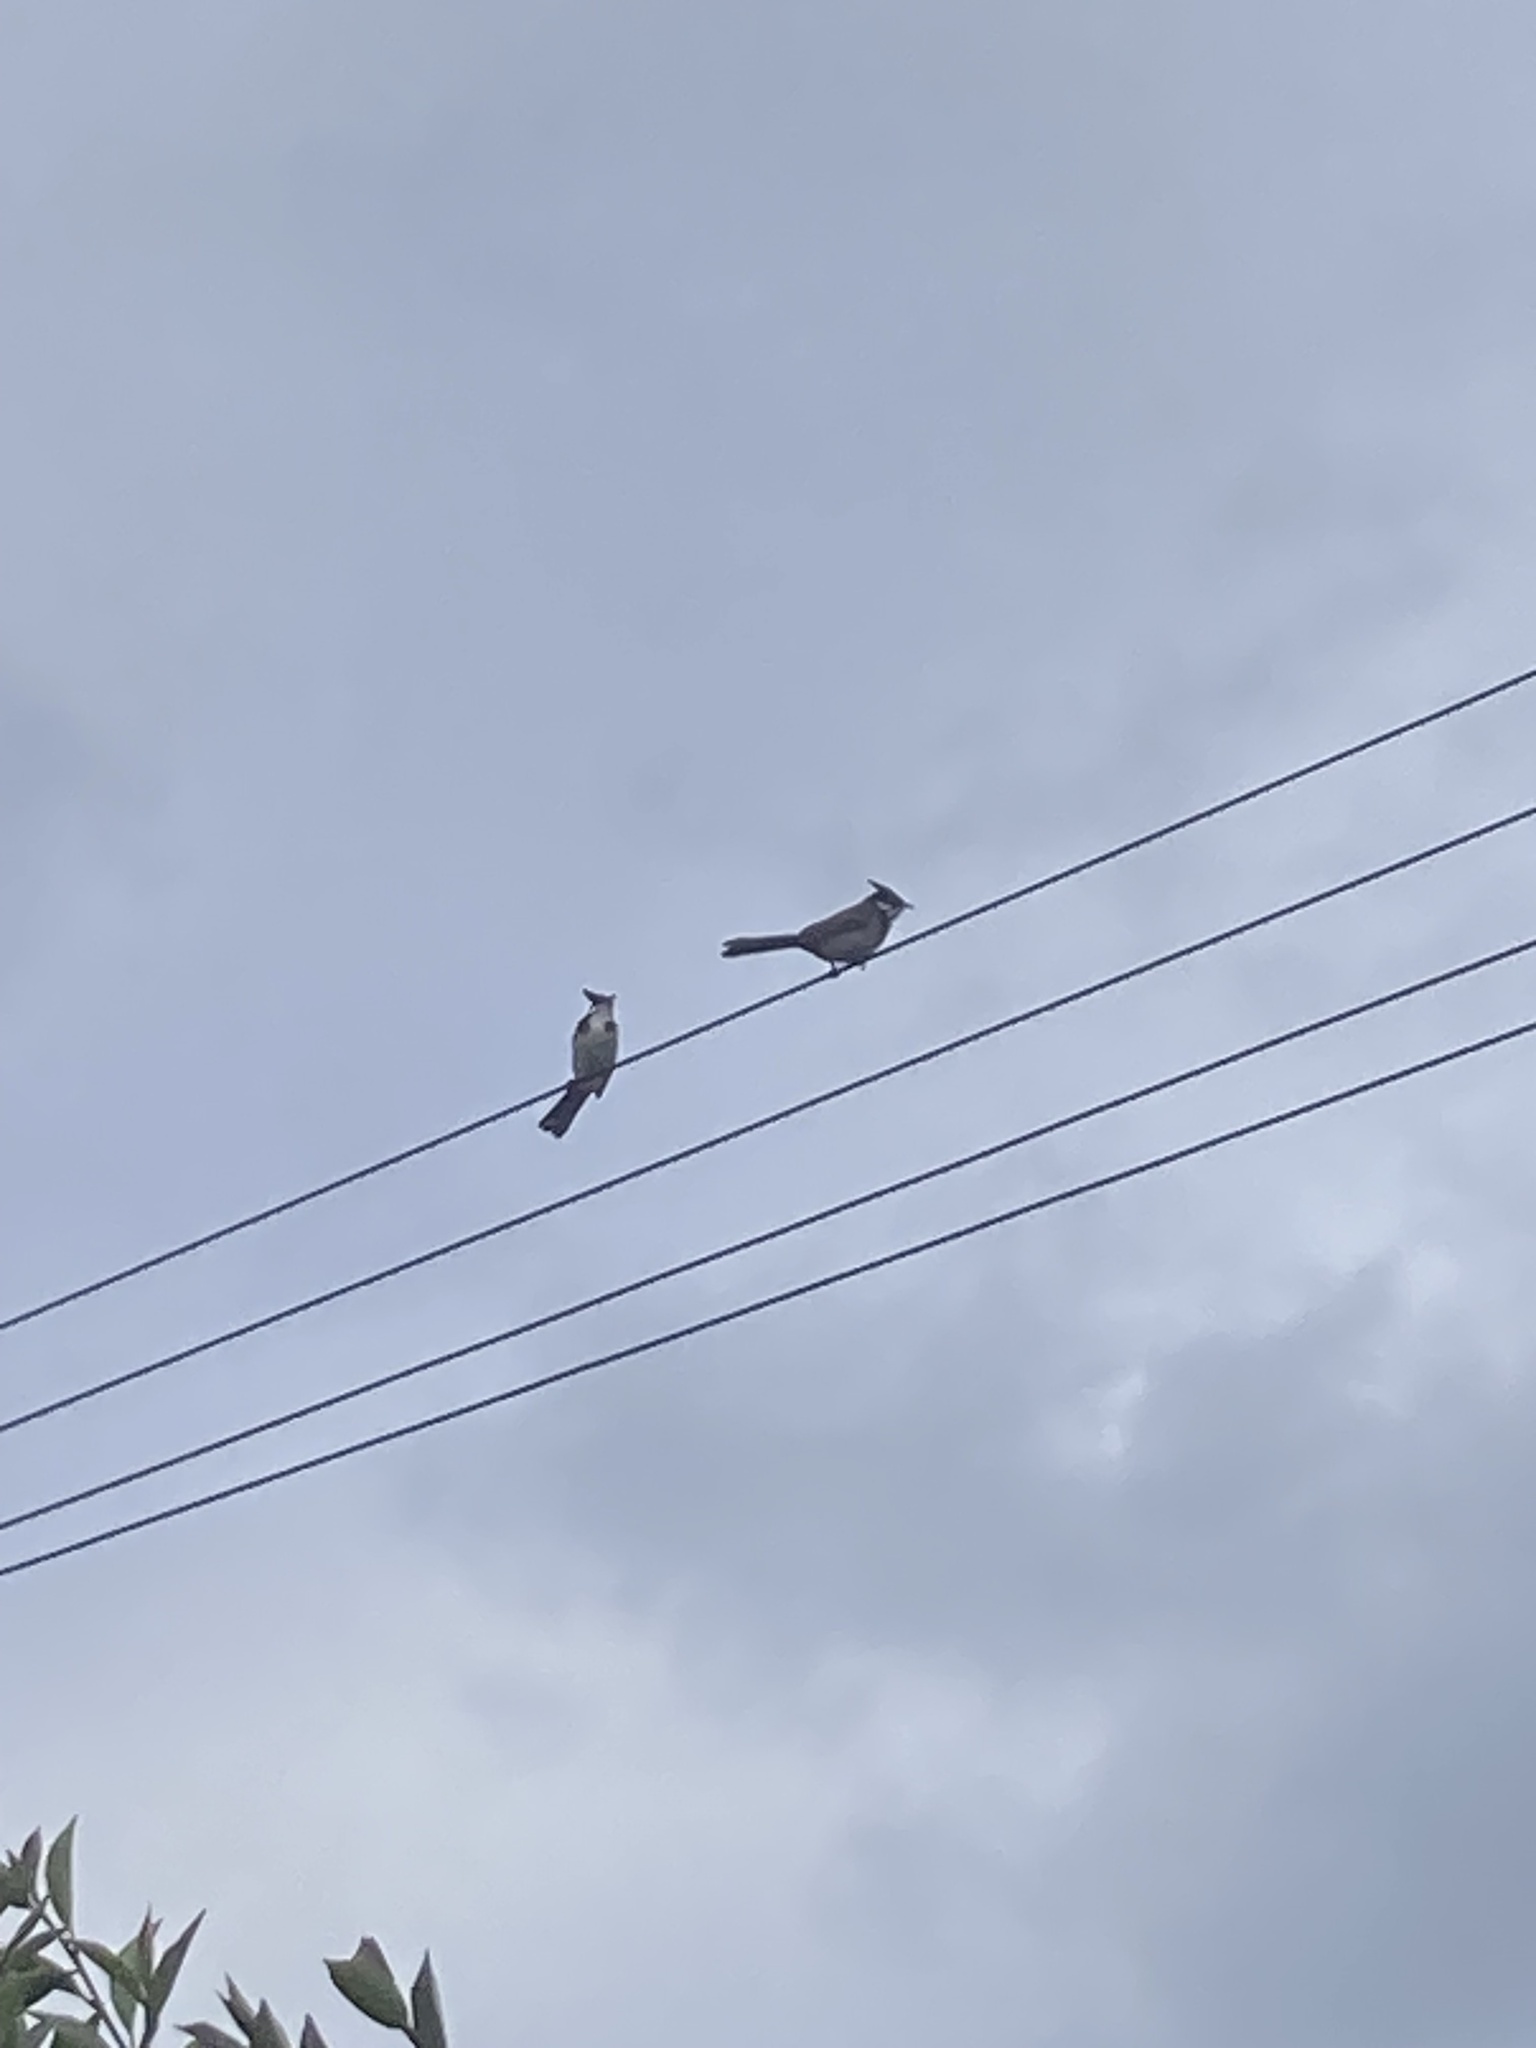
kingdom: Animalia
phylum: Chordata
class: Aves
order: Passeriformes
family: Pycnonotidae
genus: Pycnonotus
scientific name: Pycnonotus jocosus
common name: Red-whiskered bulbul
